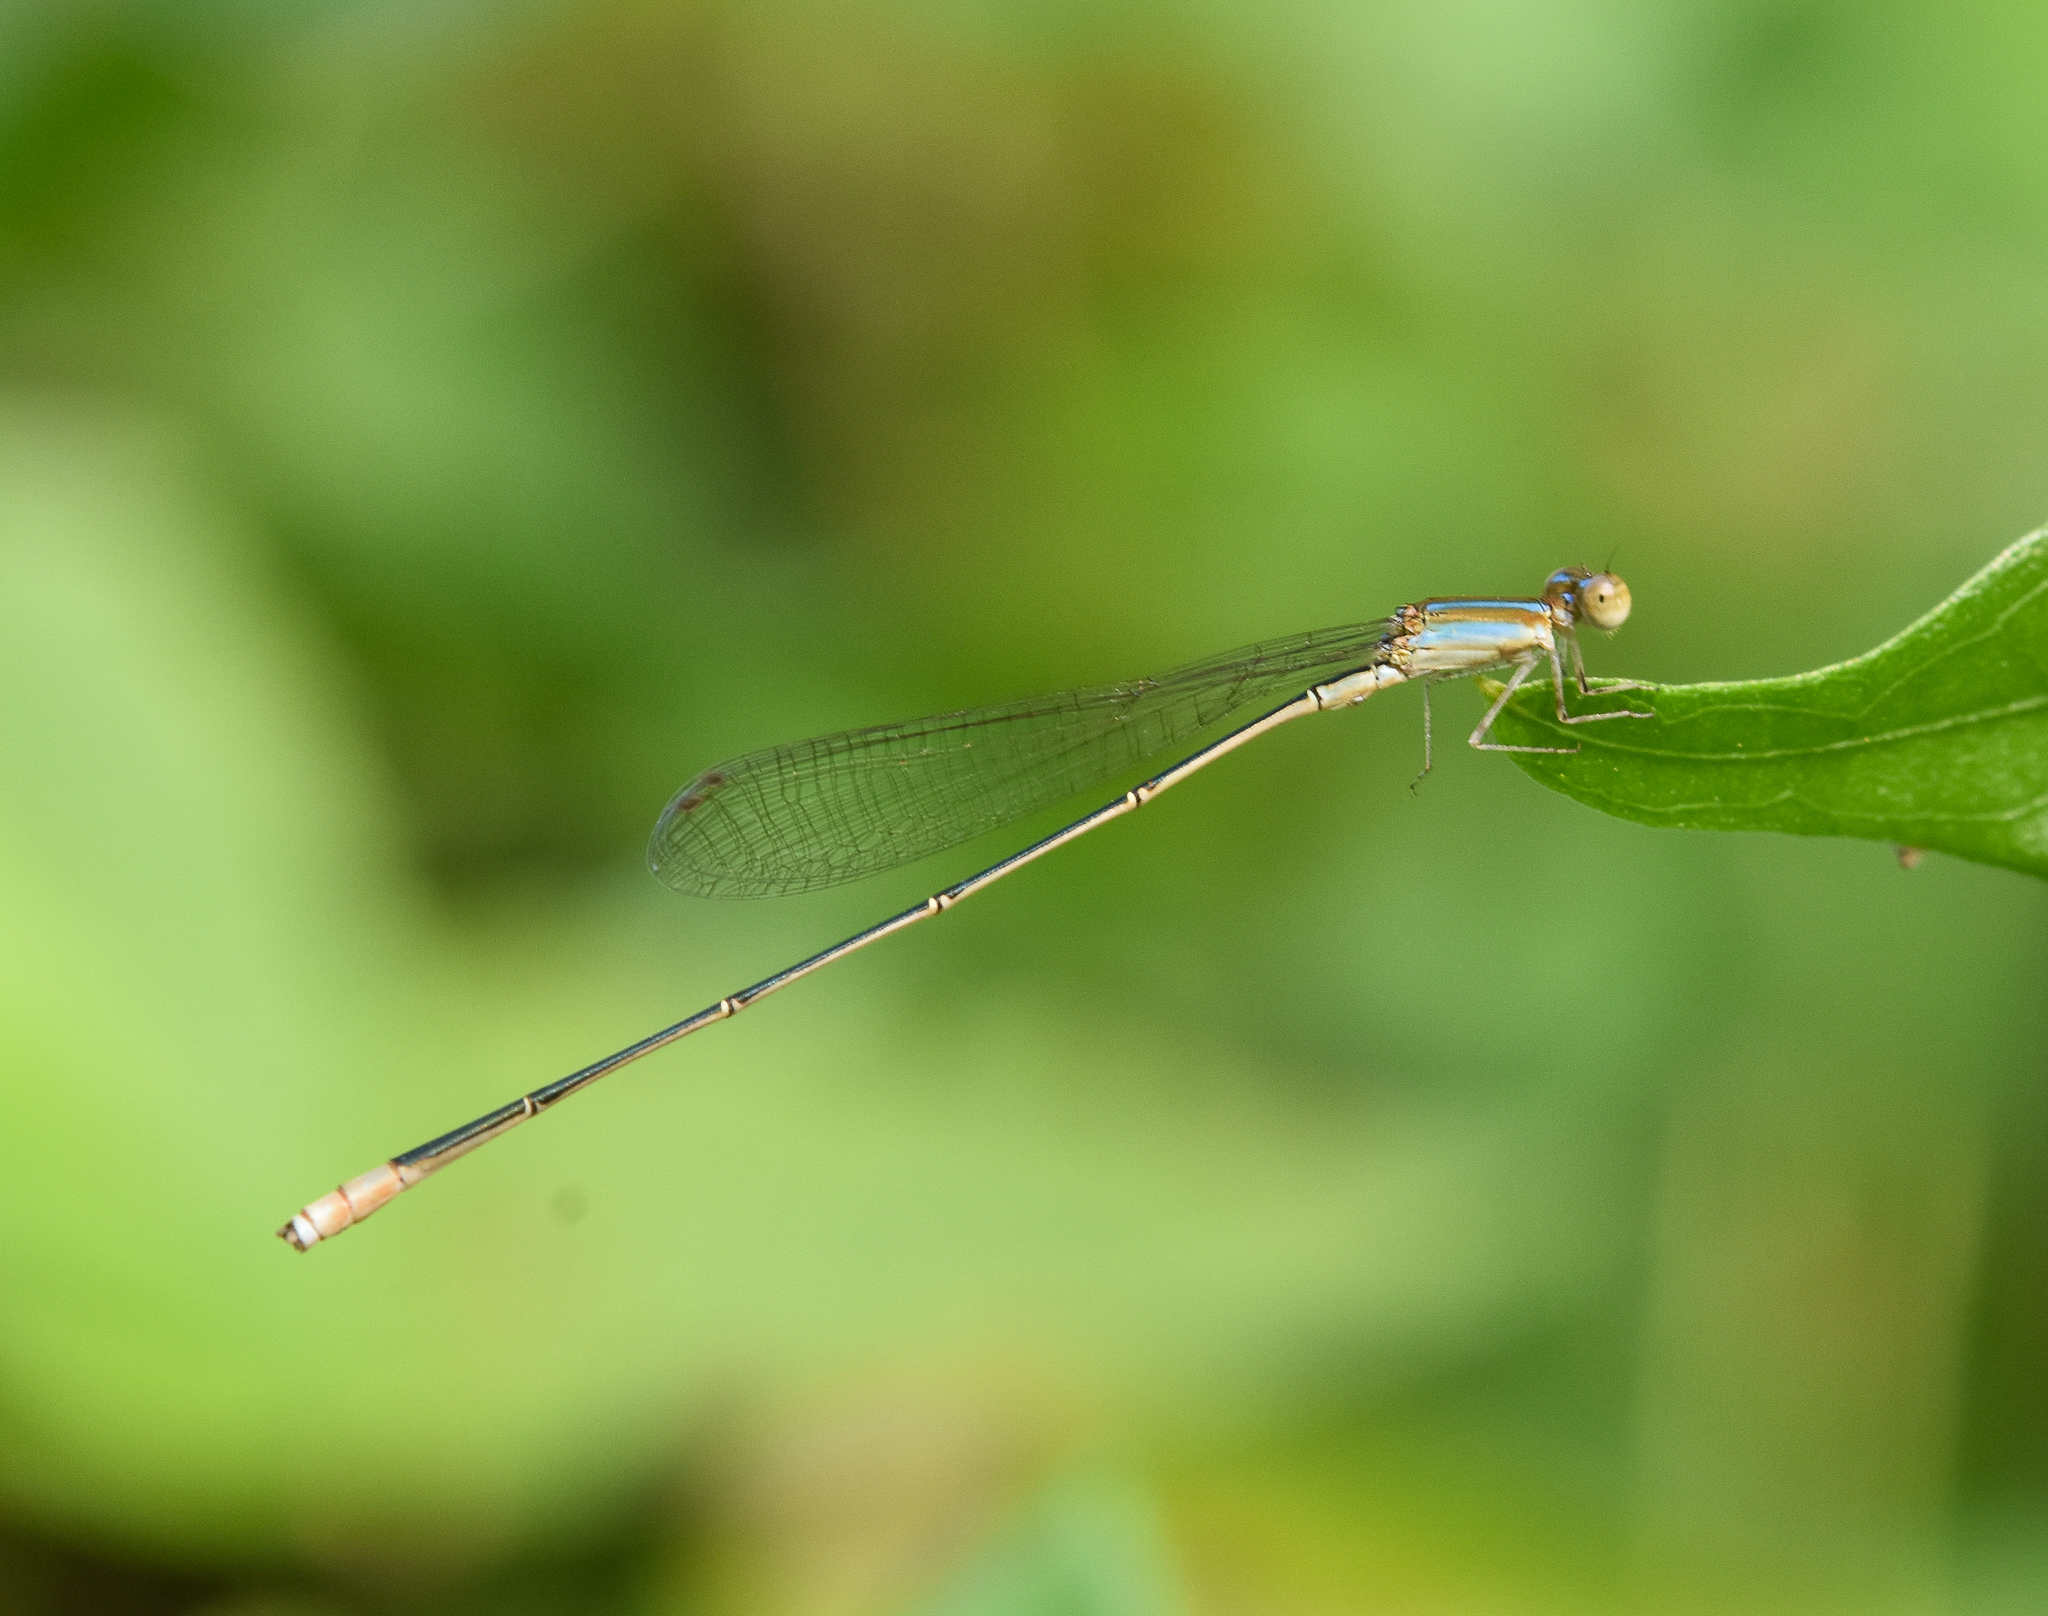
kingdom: Animalia
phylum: Arthropoda
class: Insecta
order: Odonata
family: Coenagrionidae
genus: Aciagrion
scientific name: Aciagrion pallidum
